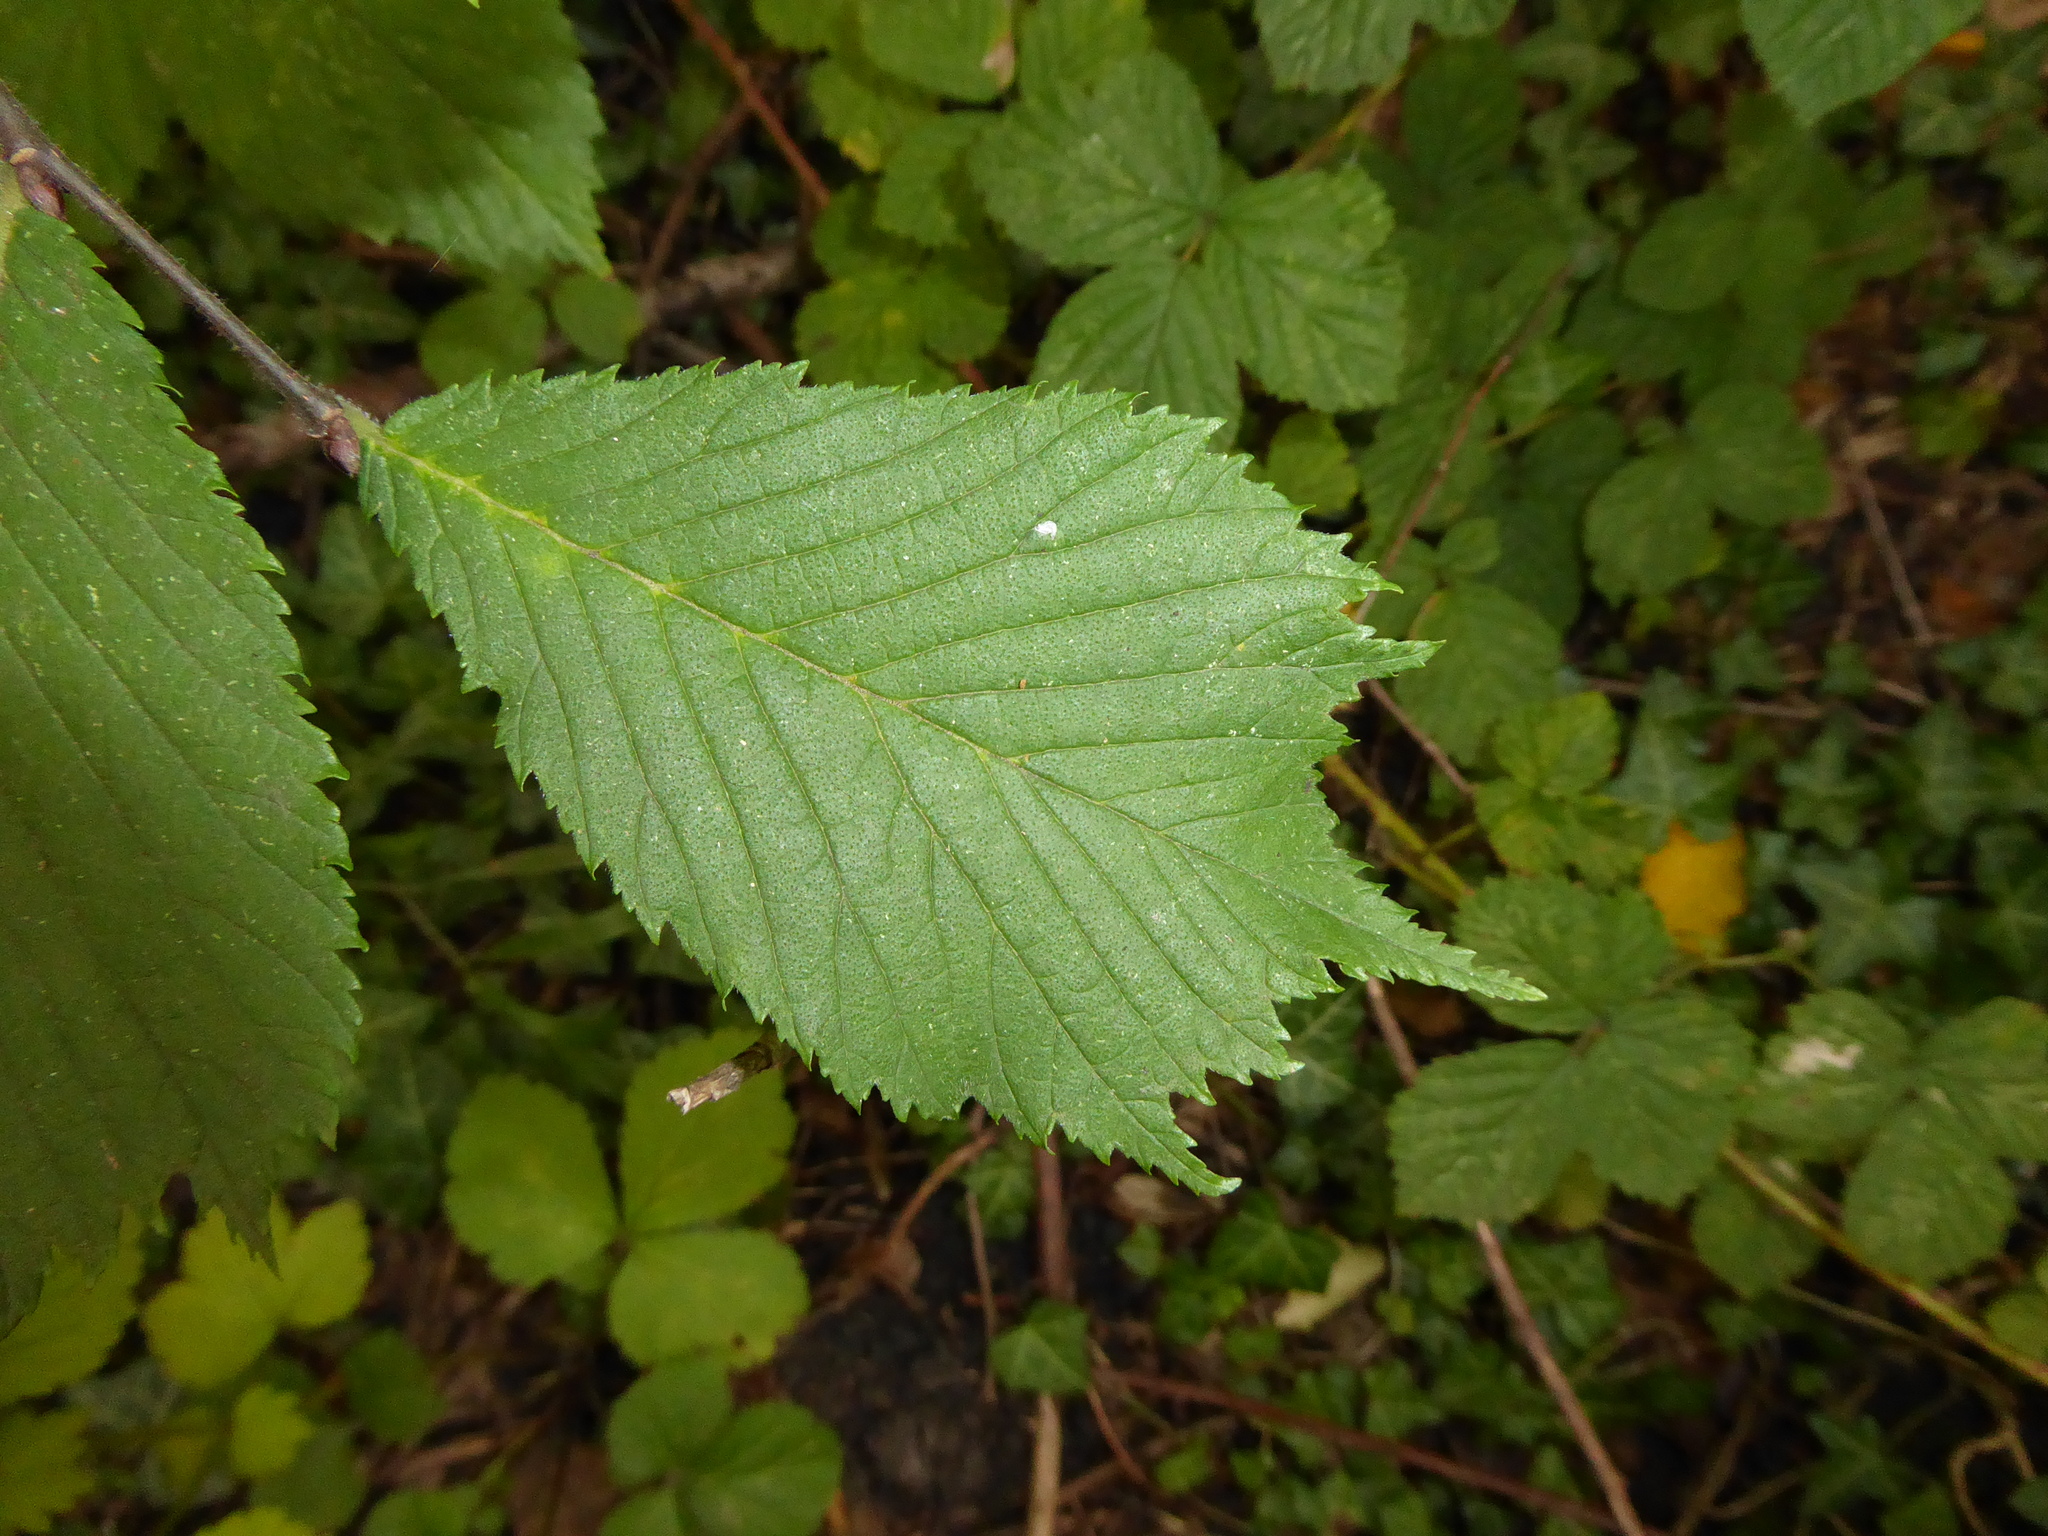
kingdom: Plantae
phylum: Tracheophyta
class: Magnoliopsida
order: Rosales
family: Ulmaceae
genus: Ulmus
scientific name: Ulmus glabra
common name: Wych elm
